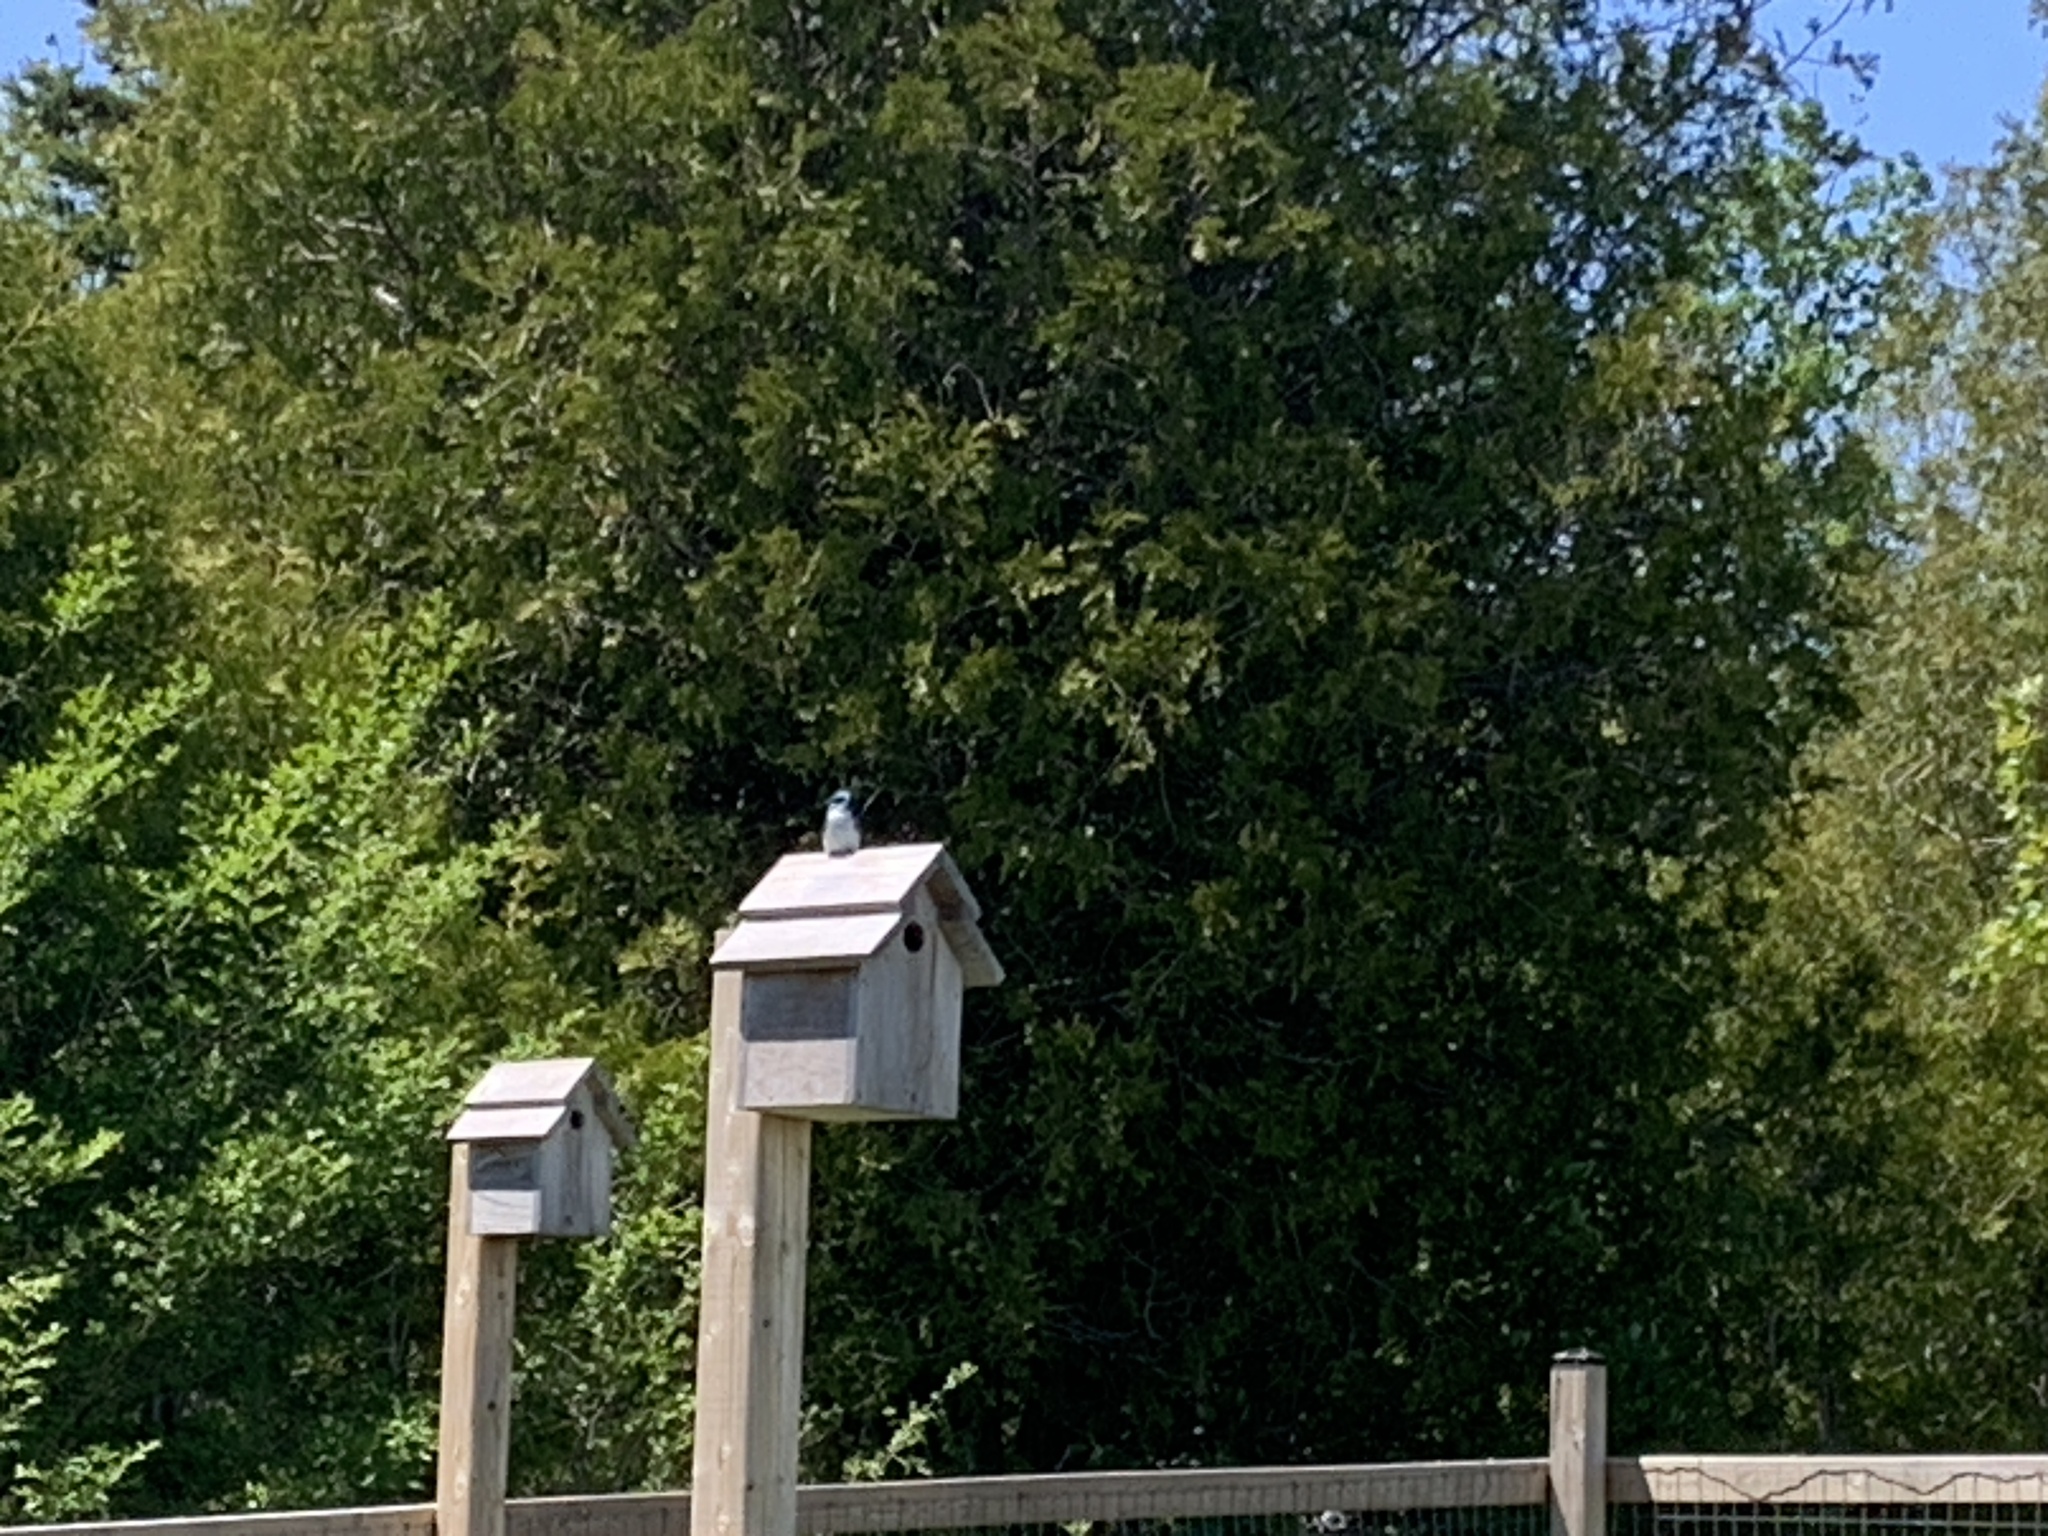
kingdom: Animalia
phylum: Chordata
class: Aves
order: Passeriformes
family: Hirundinidae
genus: Tachycineta
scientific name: Tachycineta bicolor
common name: Tree swallow
